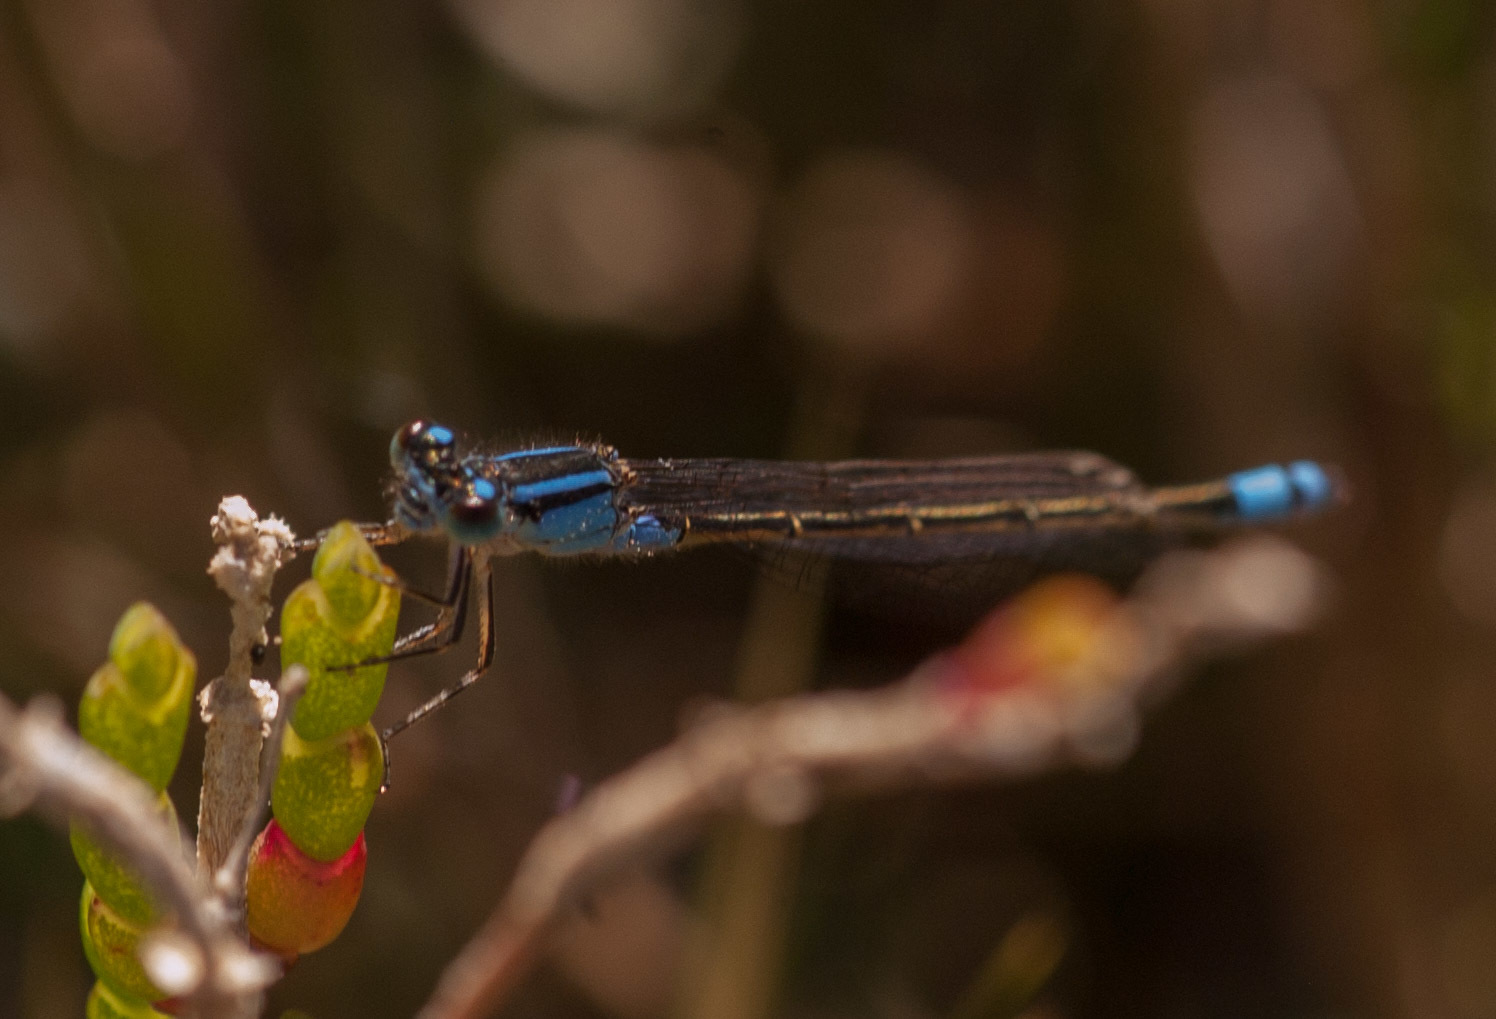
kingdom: Animalia
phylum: Arthropoda
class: Insecta
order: Odonata
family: Coenagrionidae
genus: Ischnura
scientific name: Ischnura heterosticta
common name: Common bluetail
